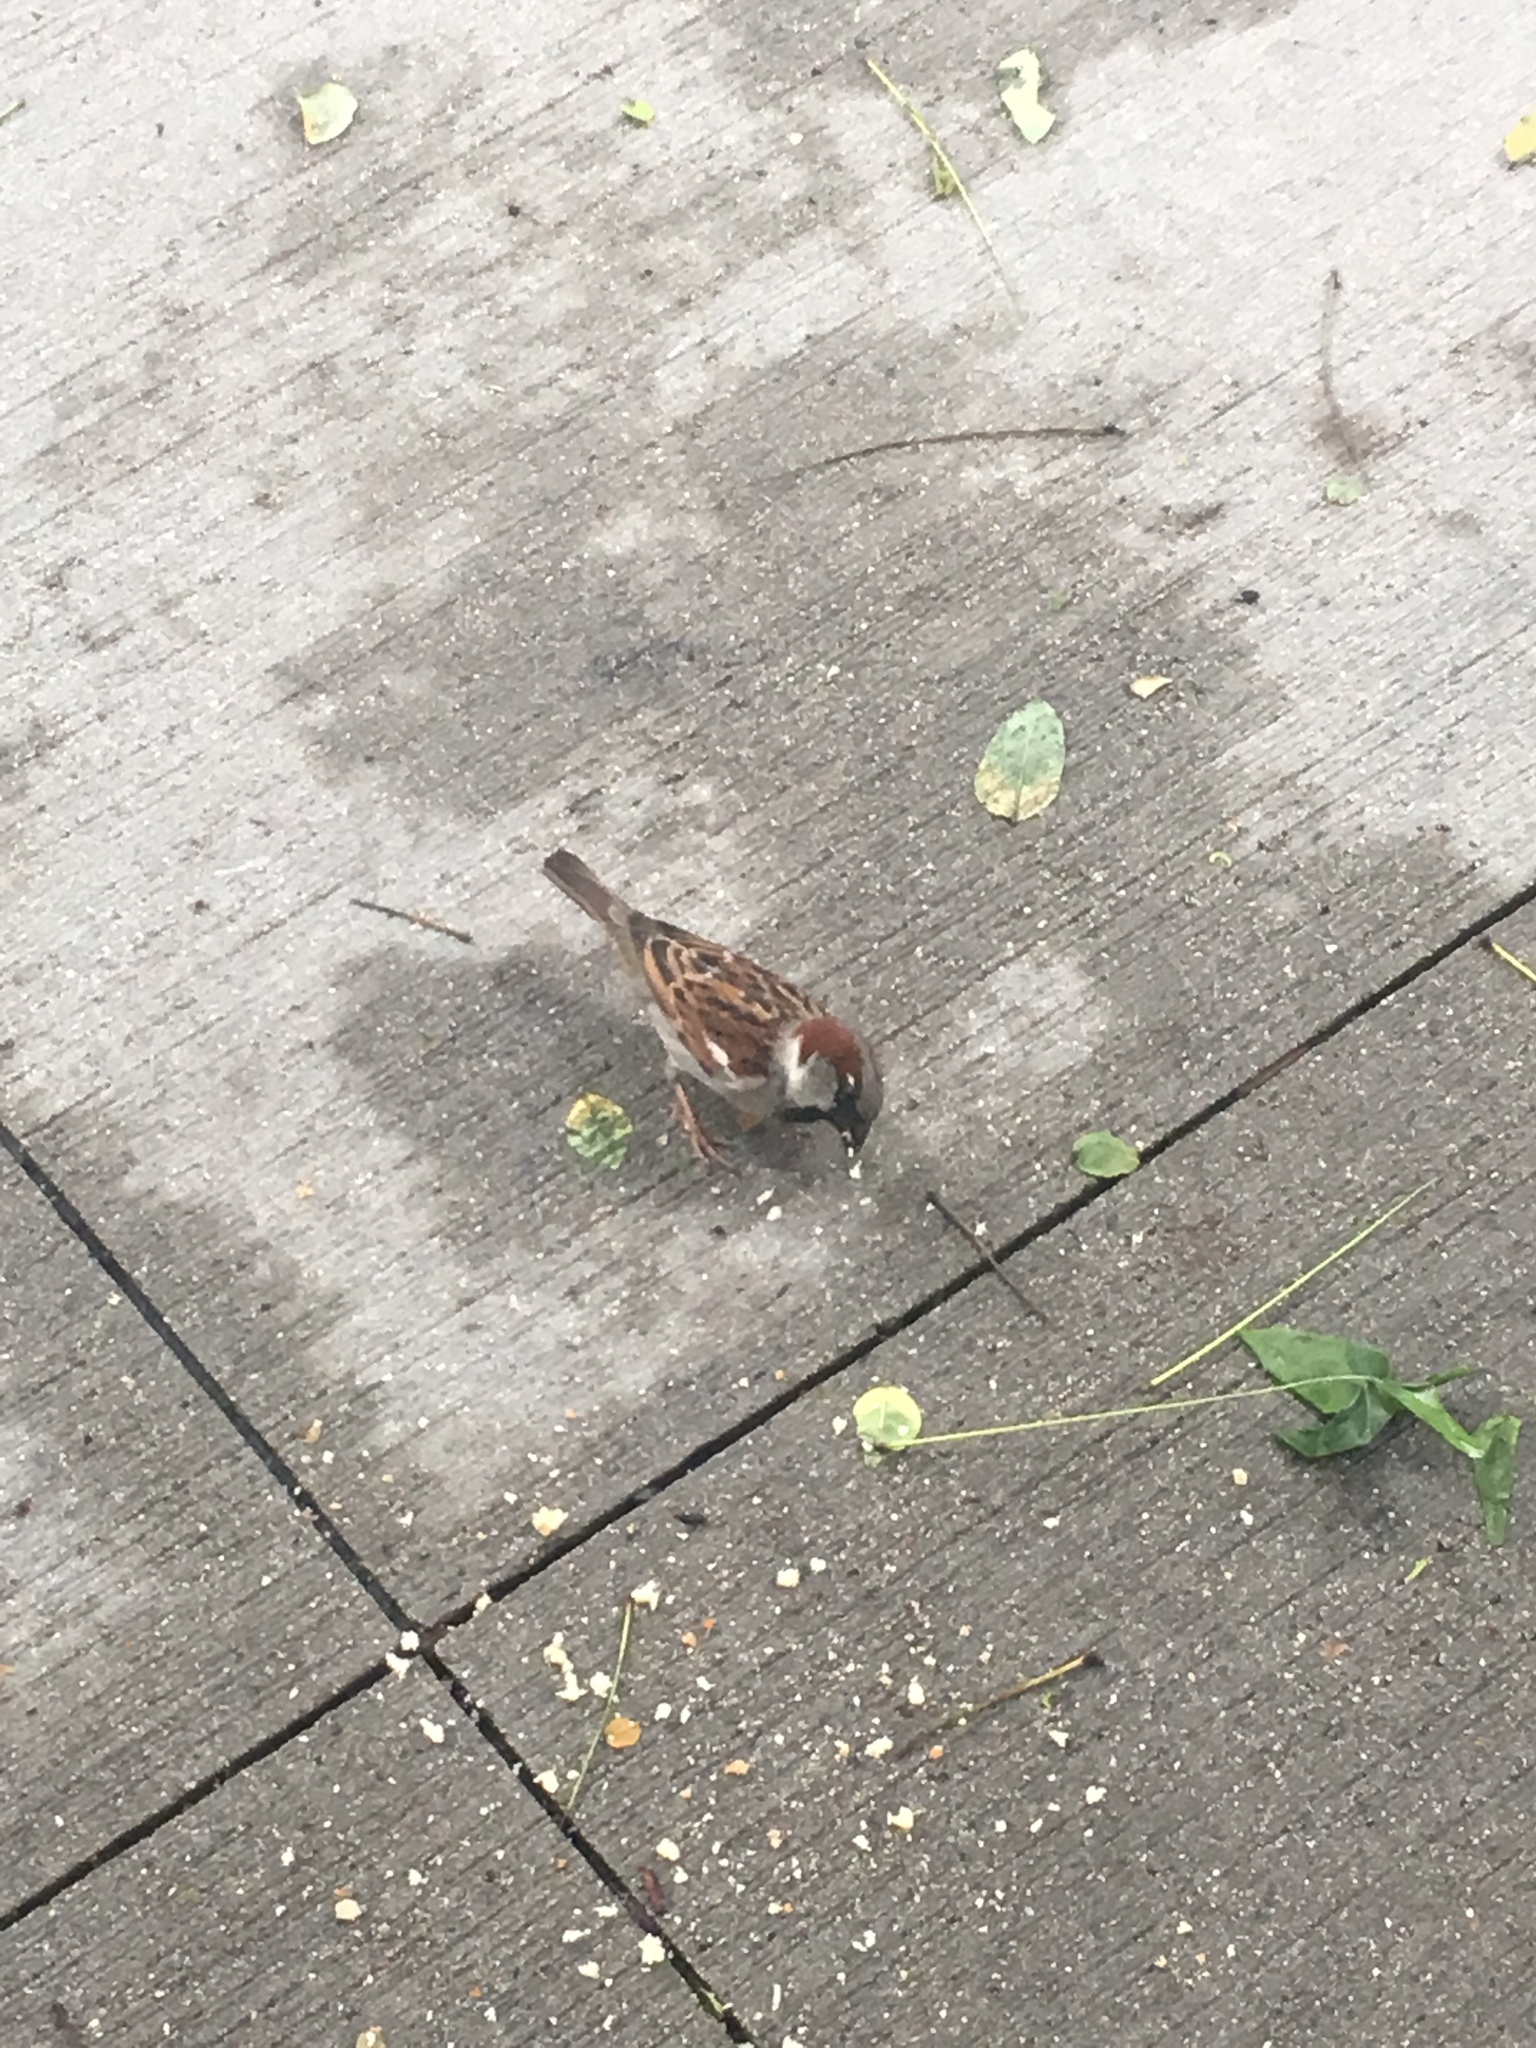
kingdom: Animalia
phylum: Chordata
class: Aves
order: Passeriformes
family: Passeridae
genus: Passer
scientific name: Passer domesticus
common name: House sparrow
